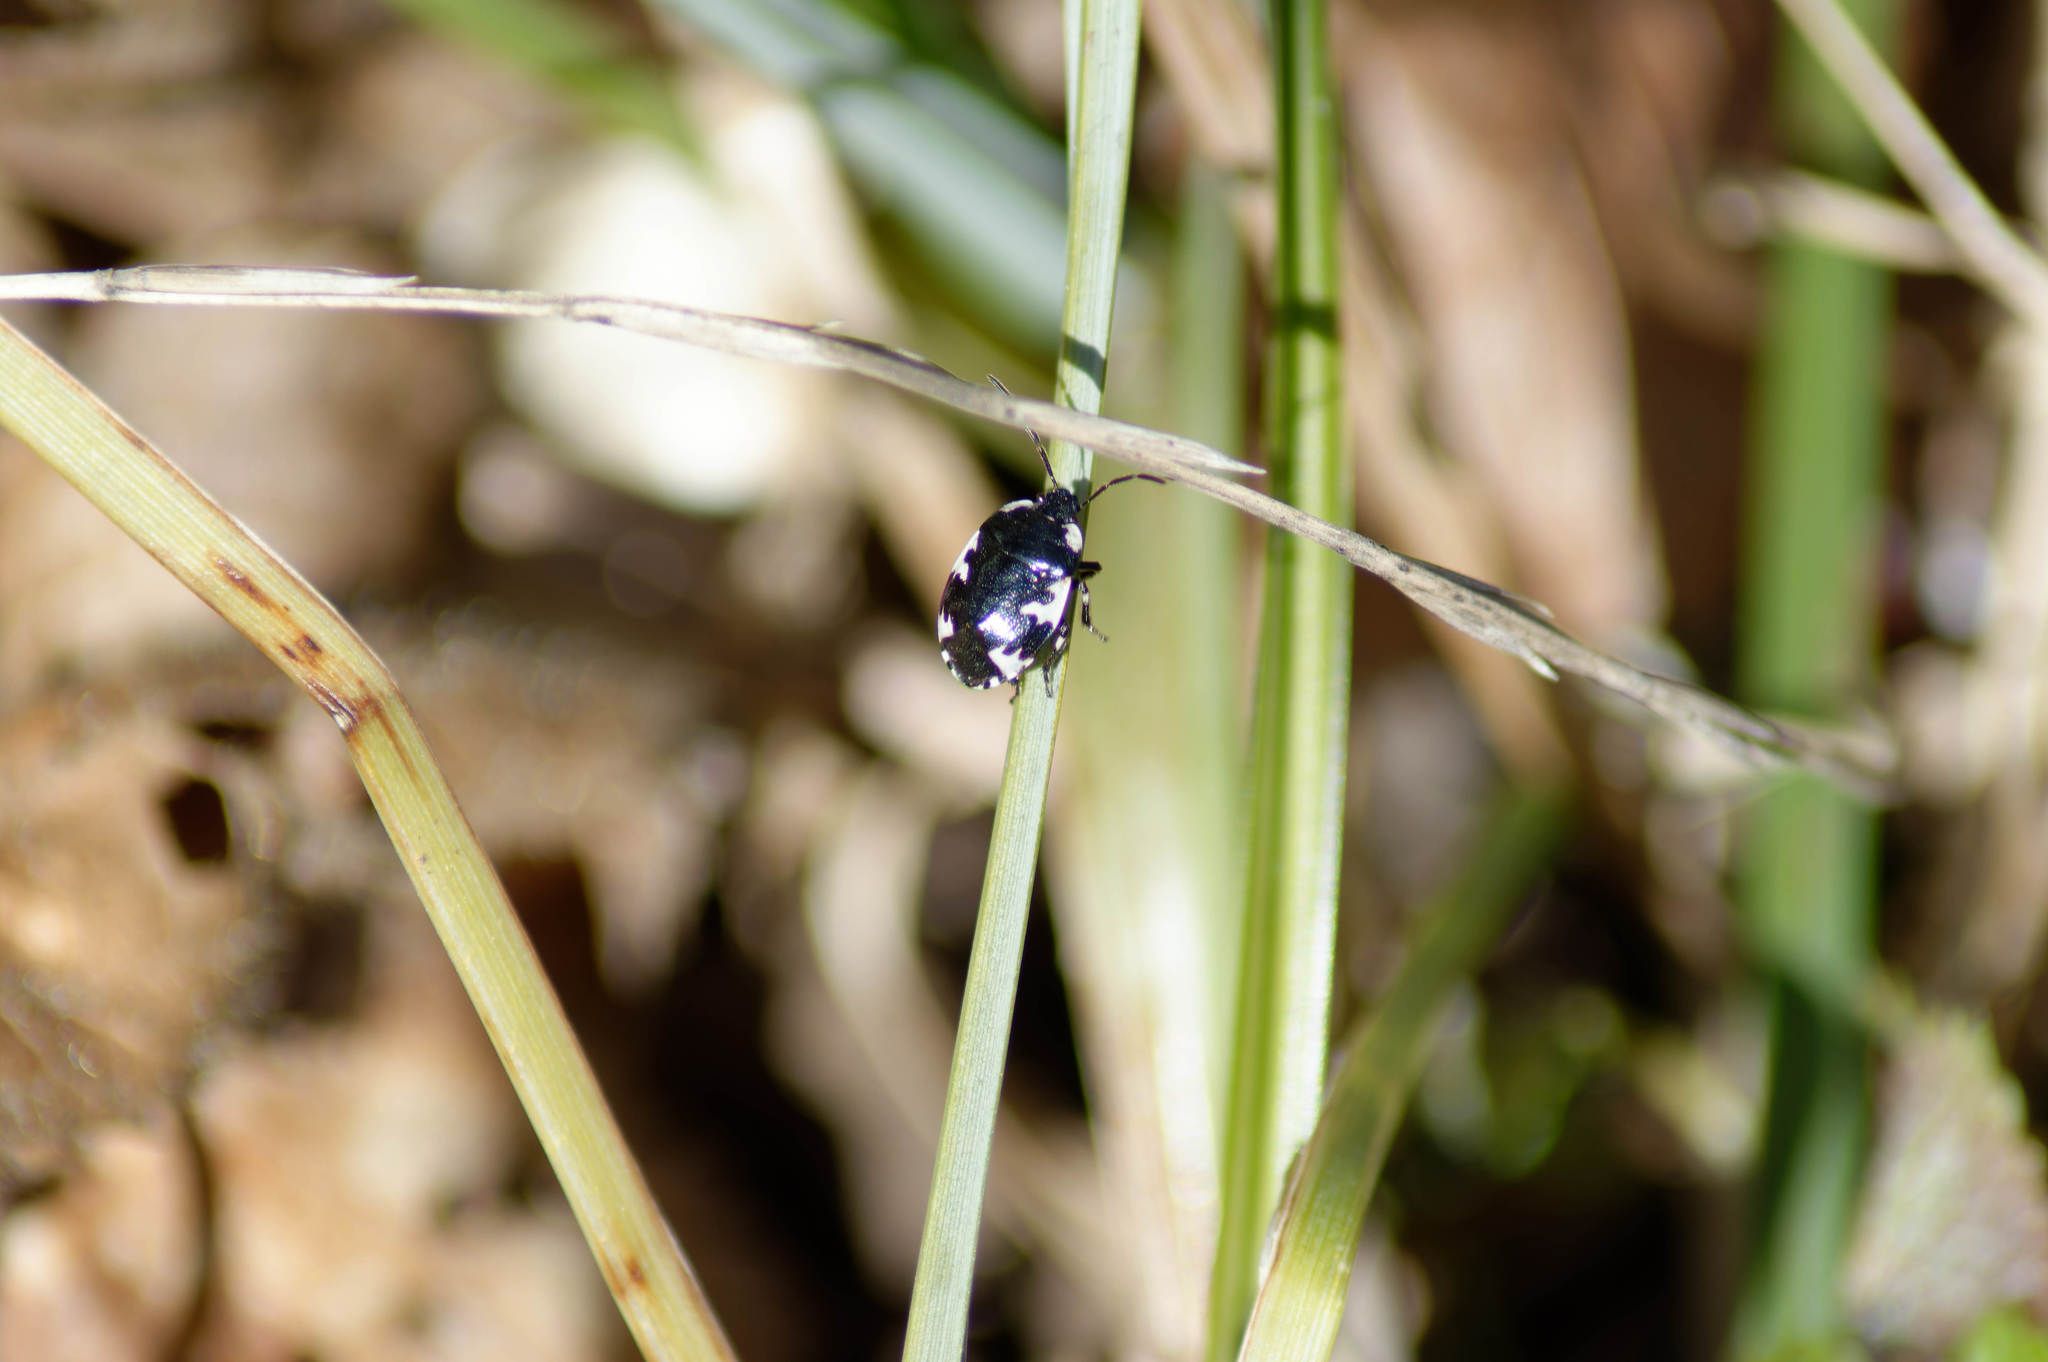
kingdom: Animalia
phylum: Arthropoda
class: Insecta
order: Hemiptera
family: Cydnidae
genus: Tritomegas
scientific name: Tritomegas rotundipennis
